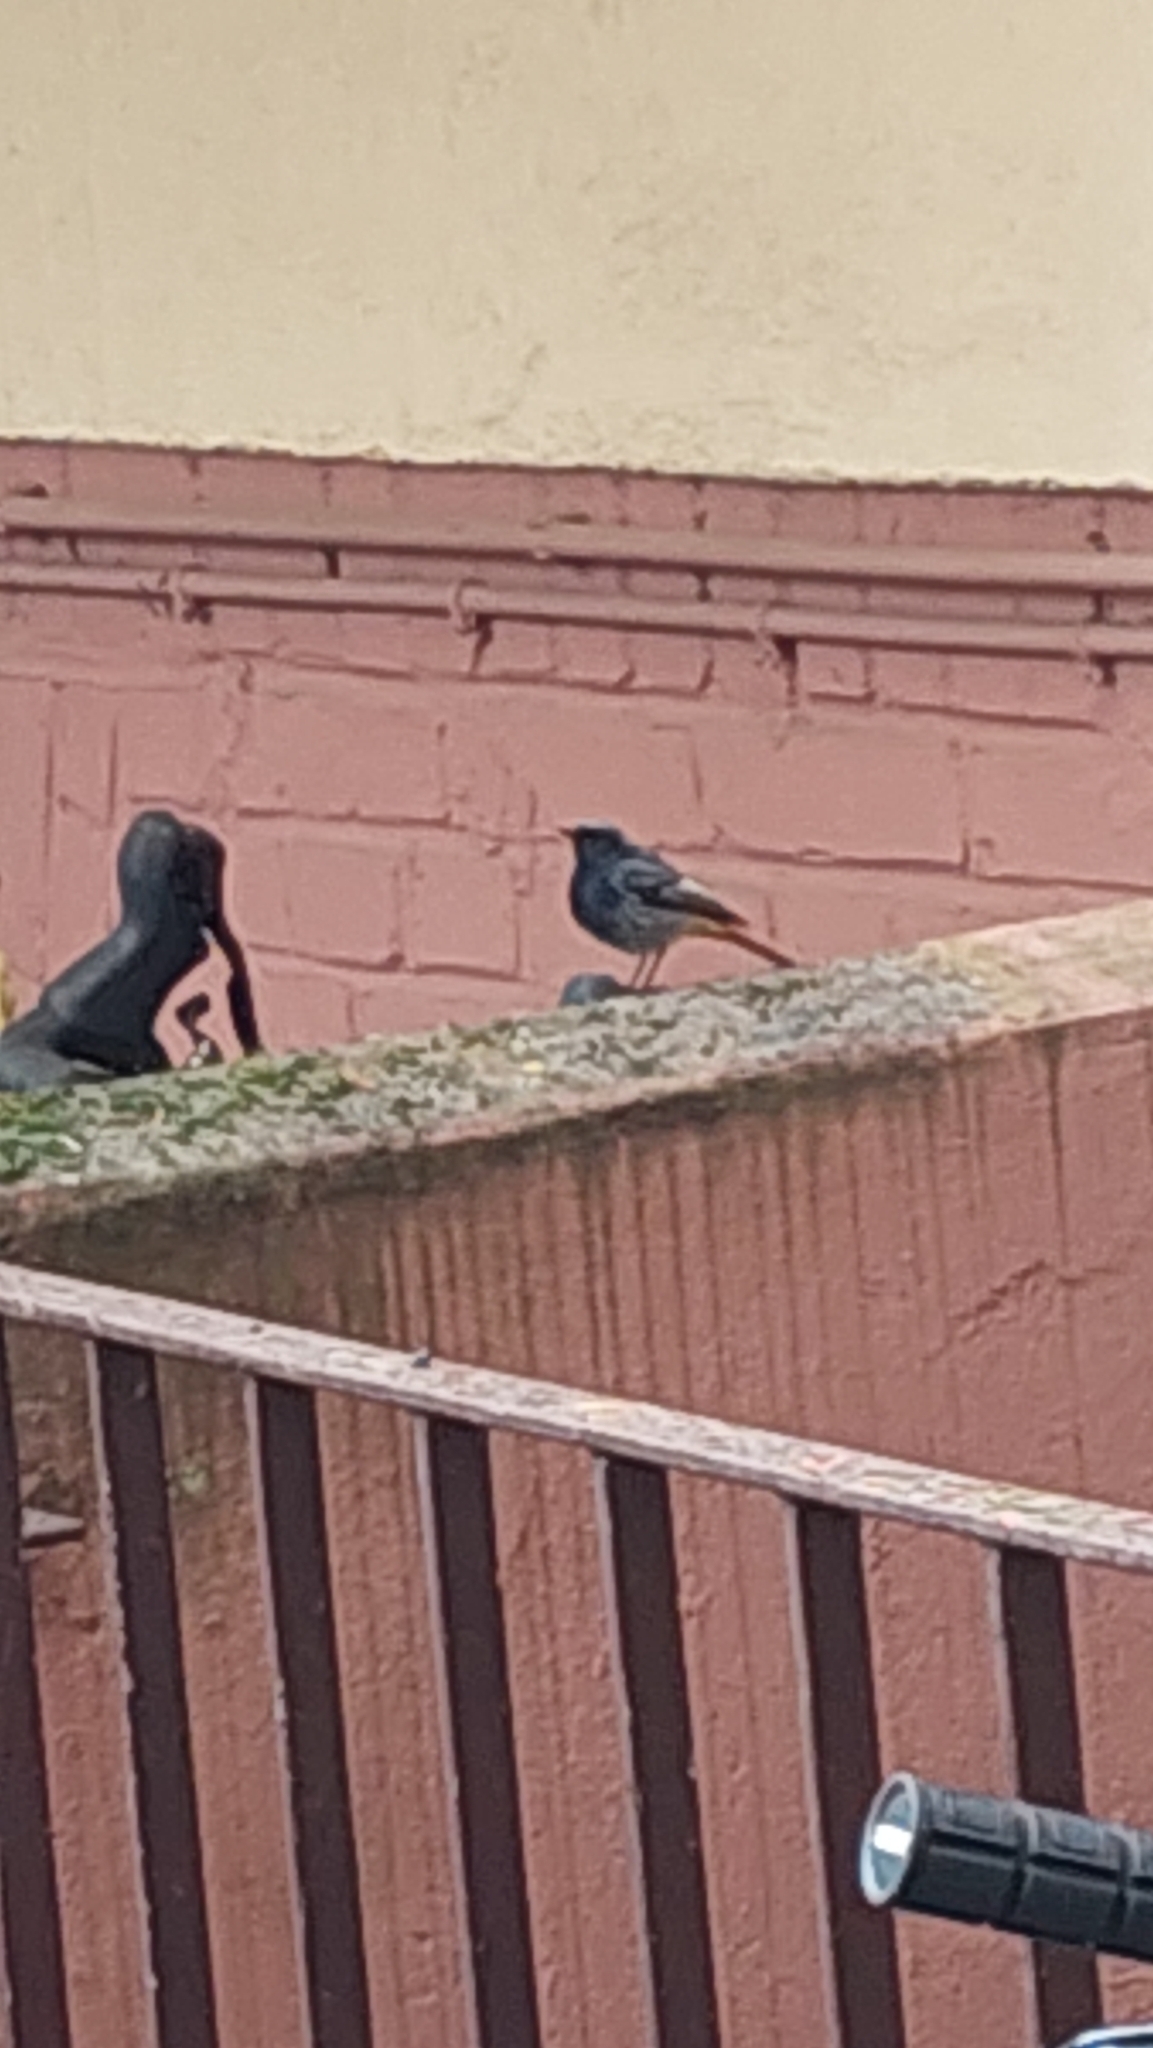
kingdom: Animalia
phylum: Chordata
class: Aves
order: Passeriformes
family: Muscicapidae
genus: Phoenicurus
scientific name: Phoenicurus ochruros
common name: Black redstart
